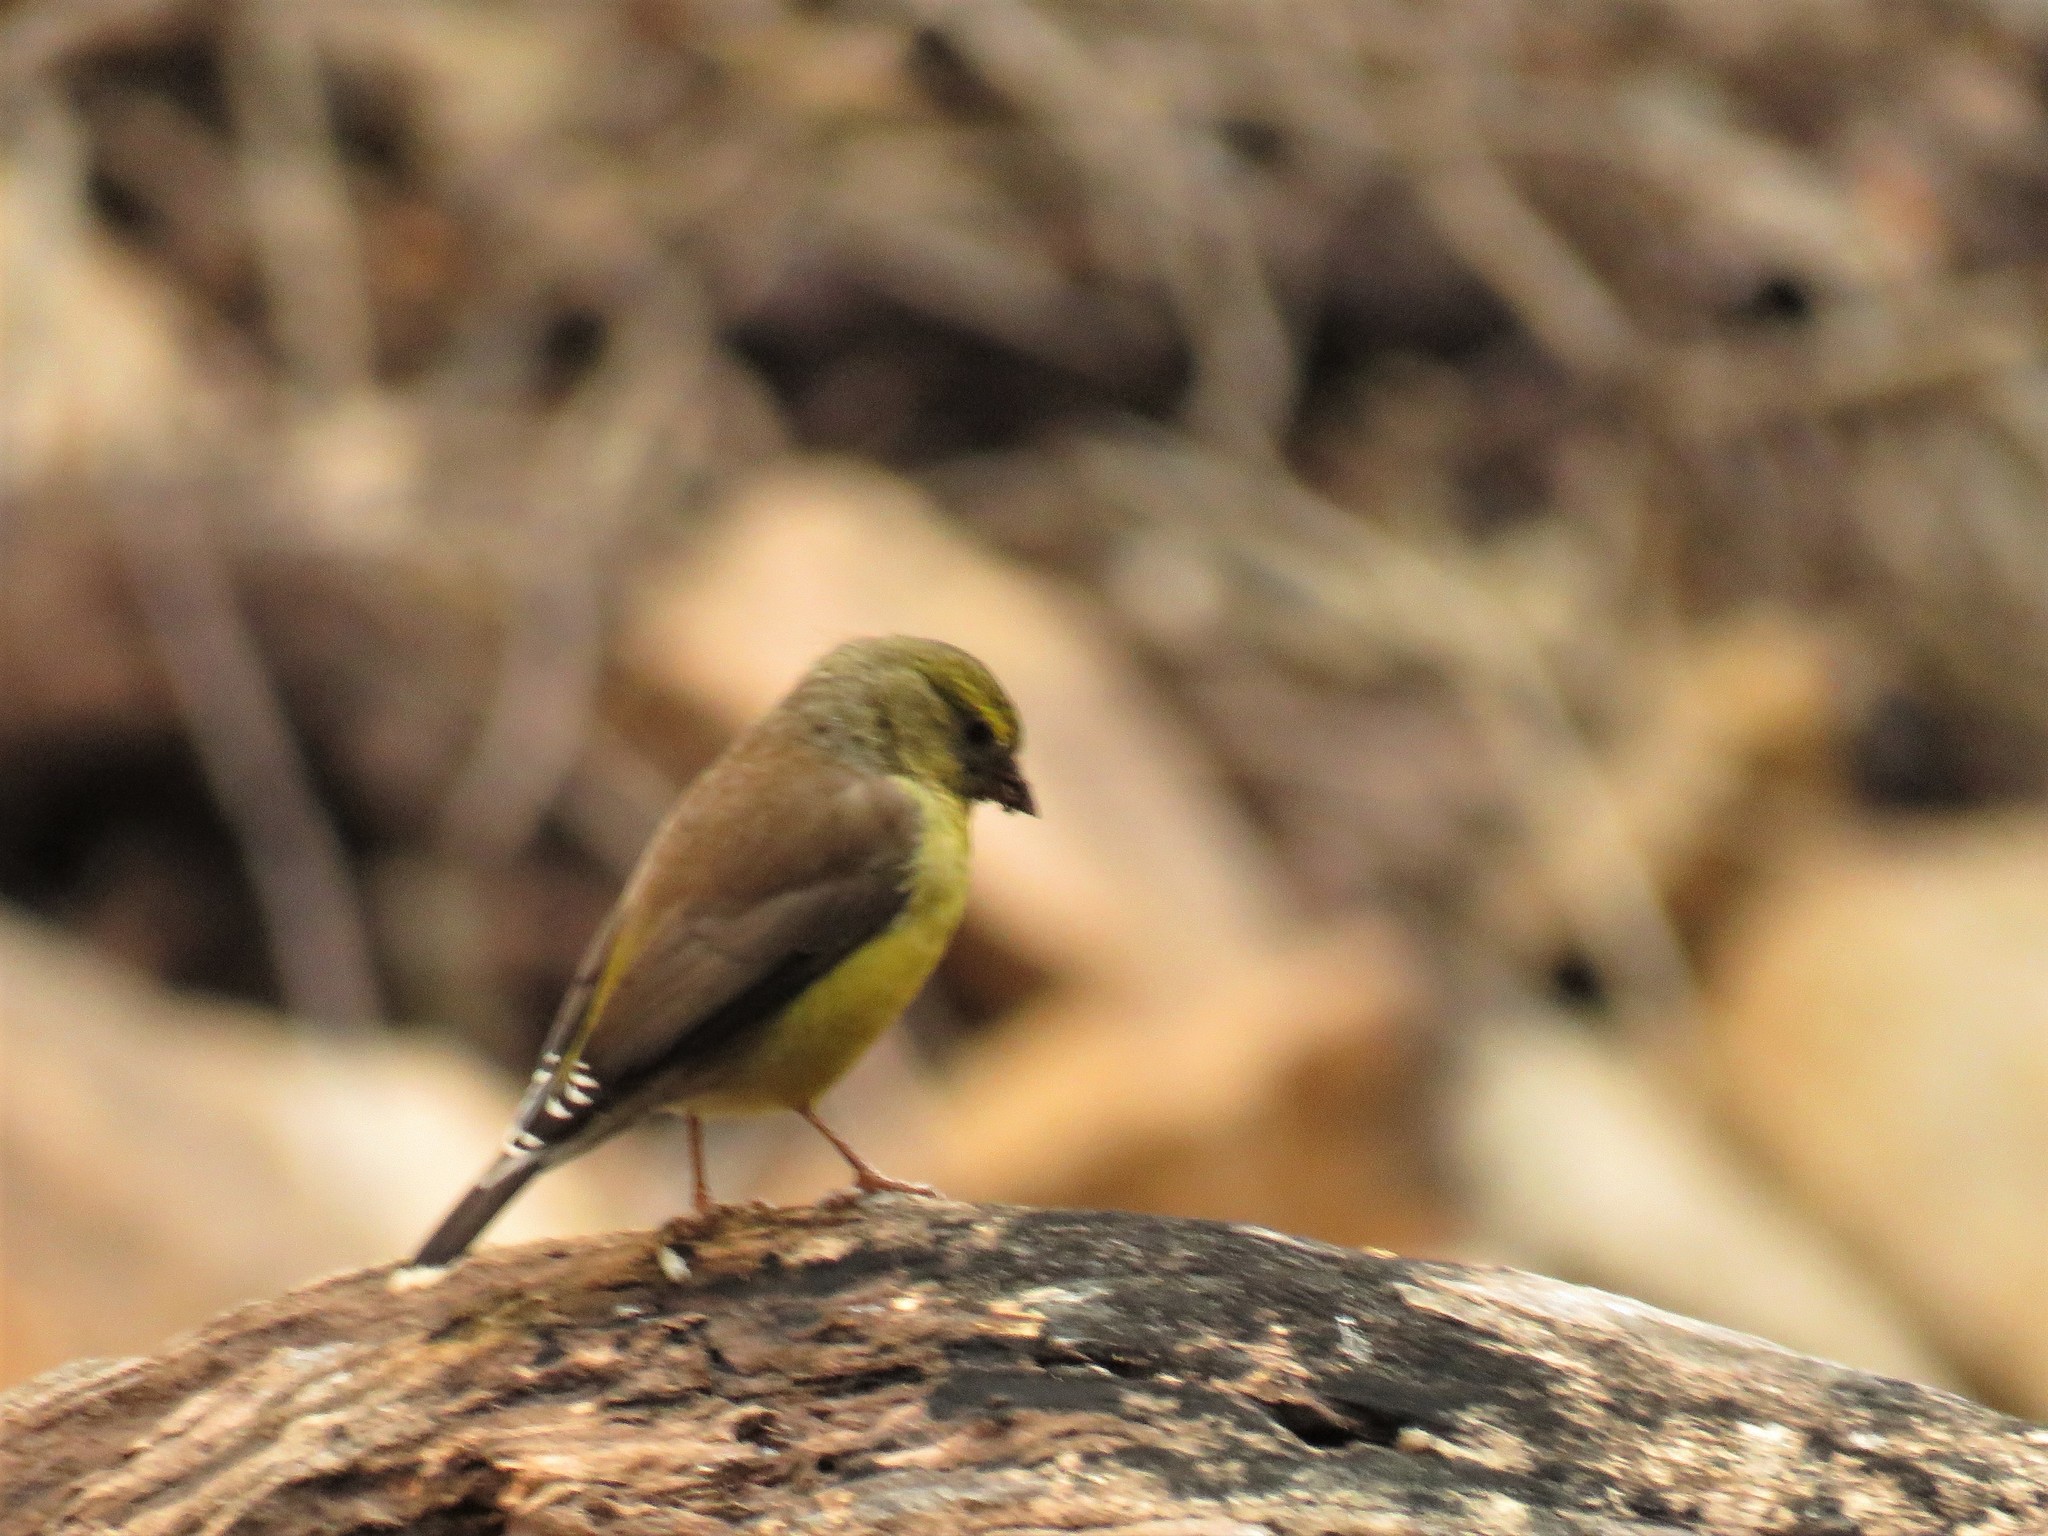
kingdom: Animalia
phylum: Chordata
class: Aves
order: Passeriformes
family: Fringillidae
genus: Crithagra
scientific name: Crithagra totta
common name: Cape siskin
